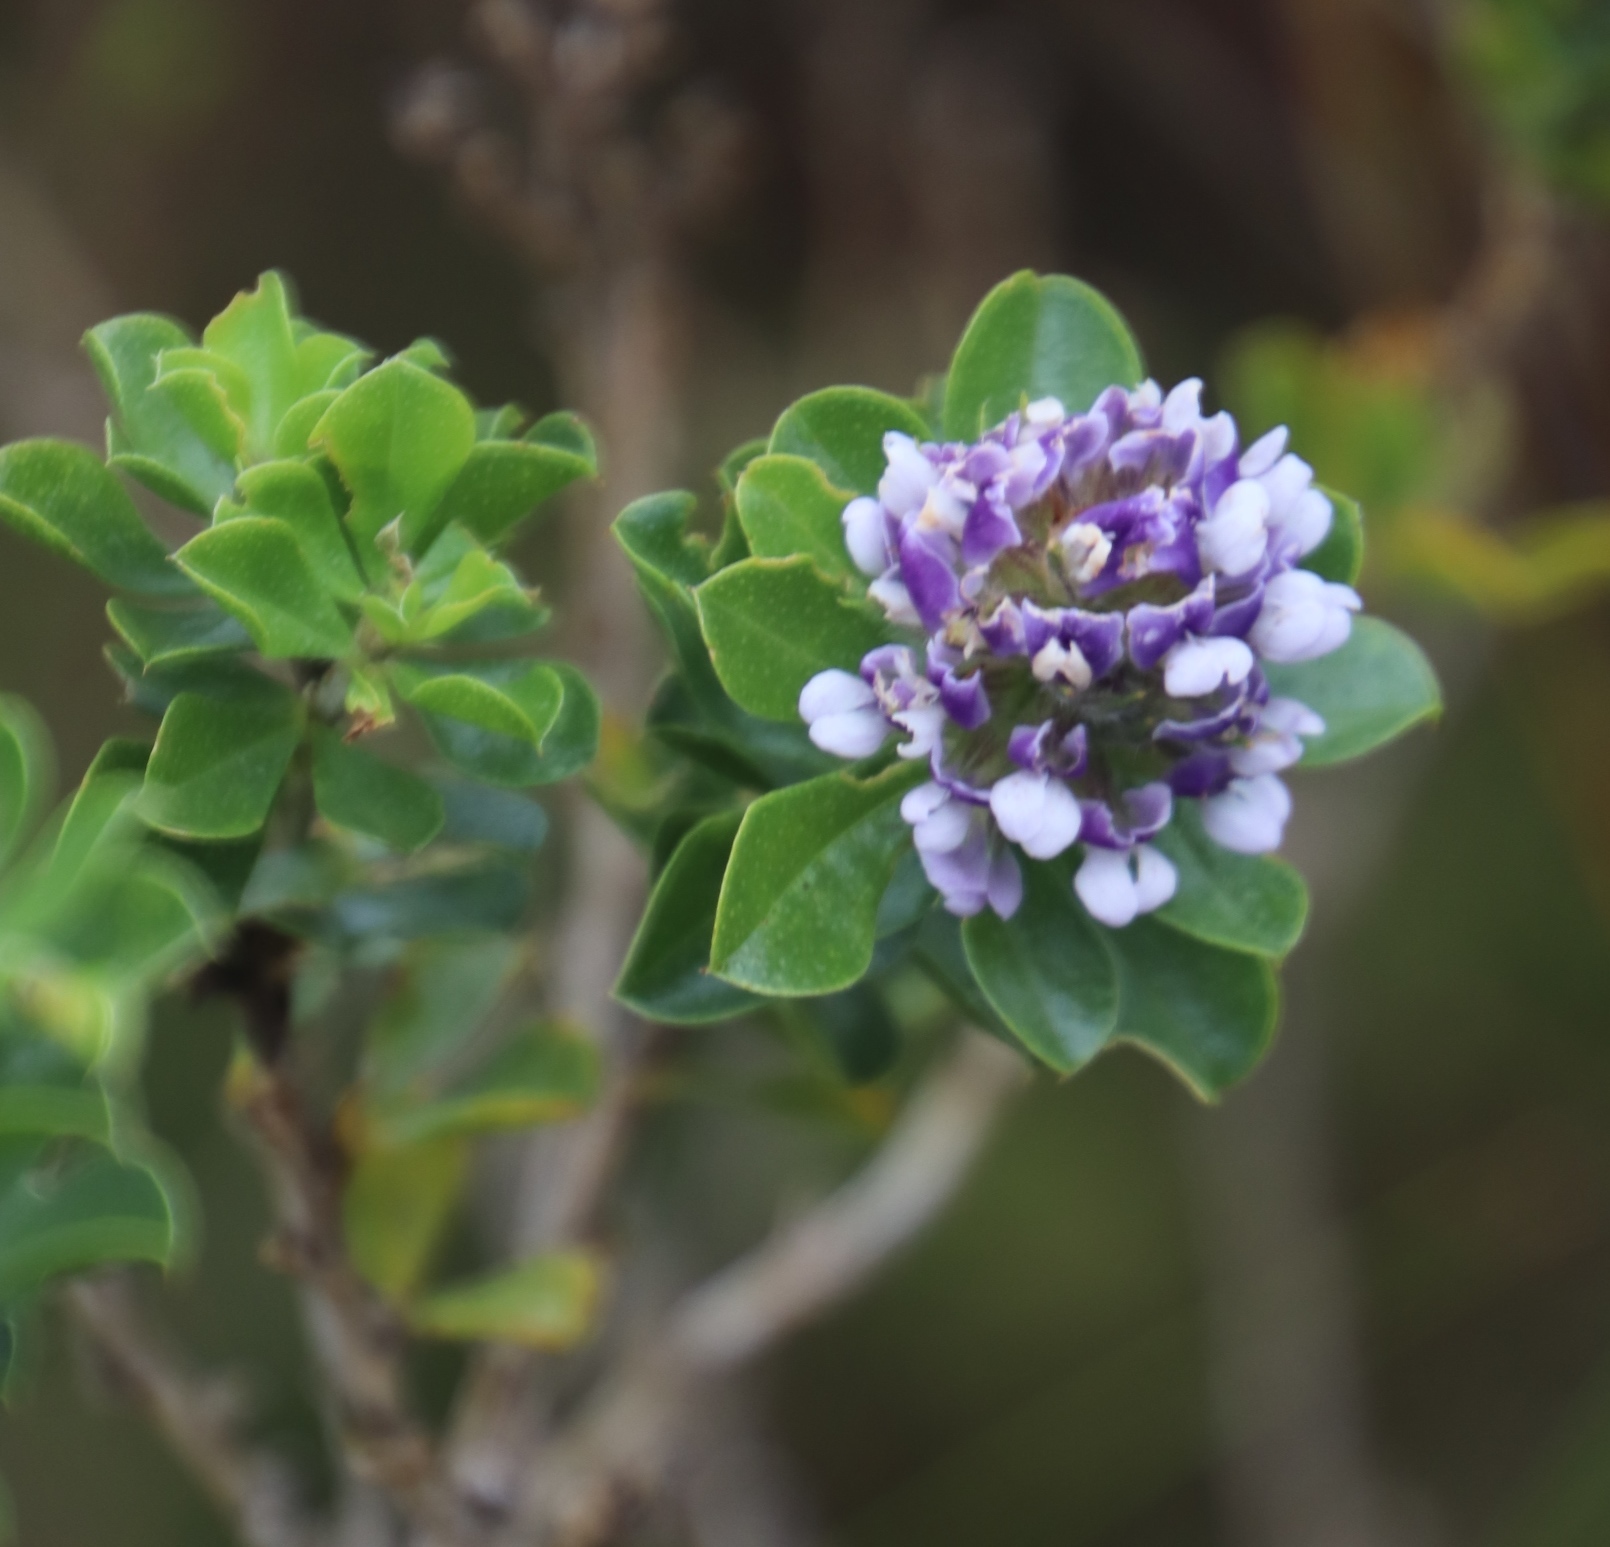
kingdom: Plantae
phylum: Tracheophyta
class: Magnoliopsida
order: Fabales
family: Fabaceae
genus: Psoralea
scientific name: Psoralea bracteolata
